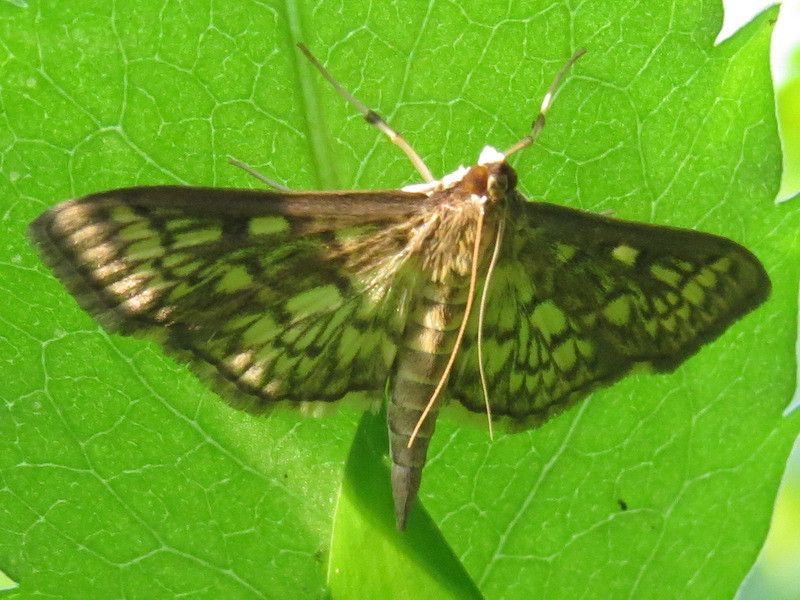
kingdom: Animalia
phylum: Arthropoda
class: Insecta
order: Lepidoptera
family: Crambidae
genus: Herpetogramma
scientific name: Herpetogramma thestealis
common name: Zigzag herpetogramma moth
